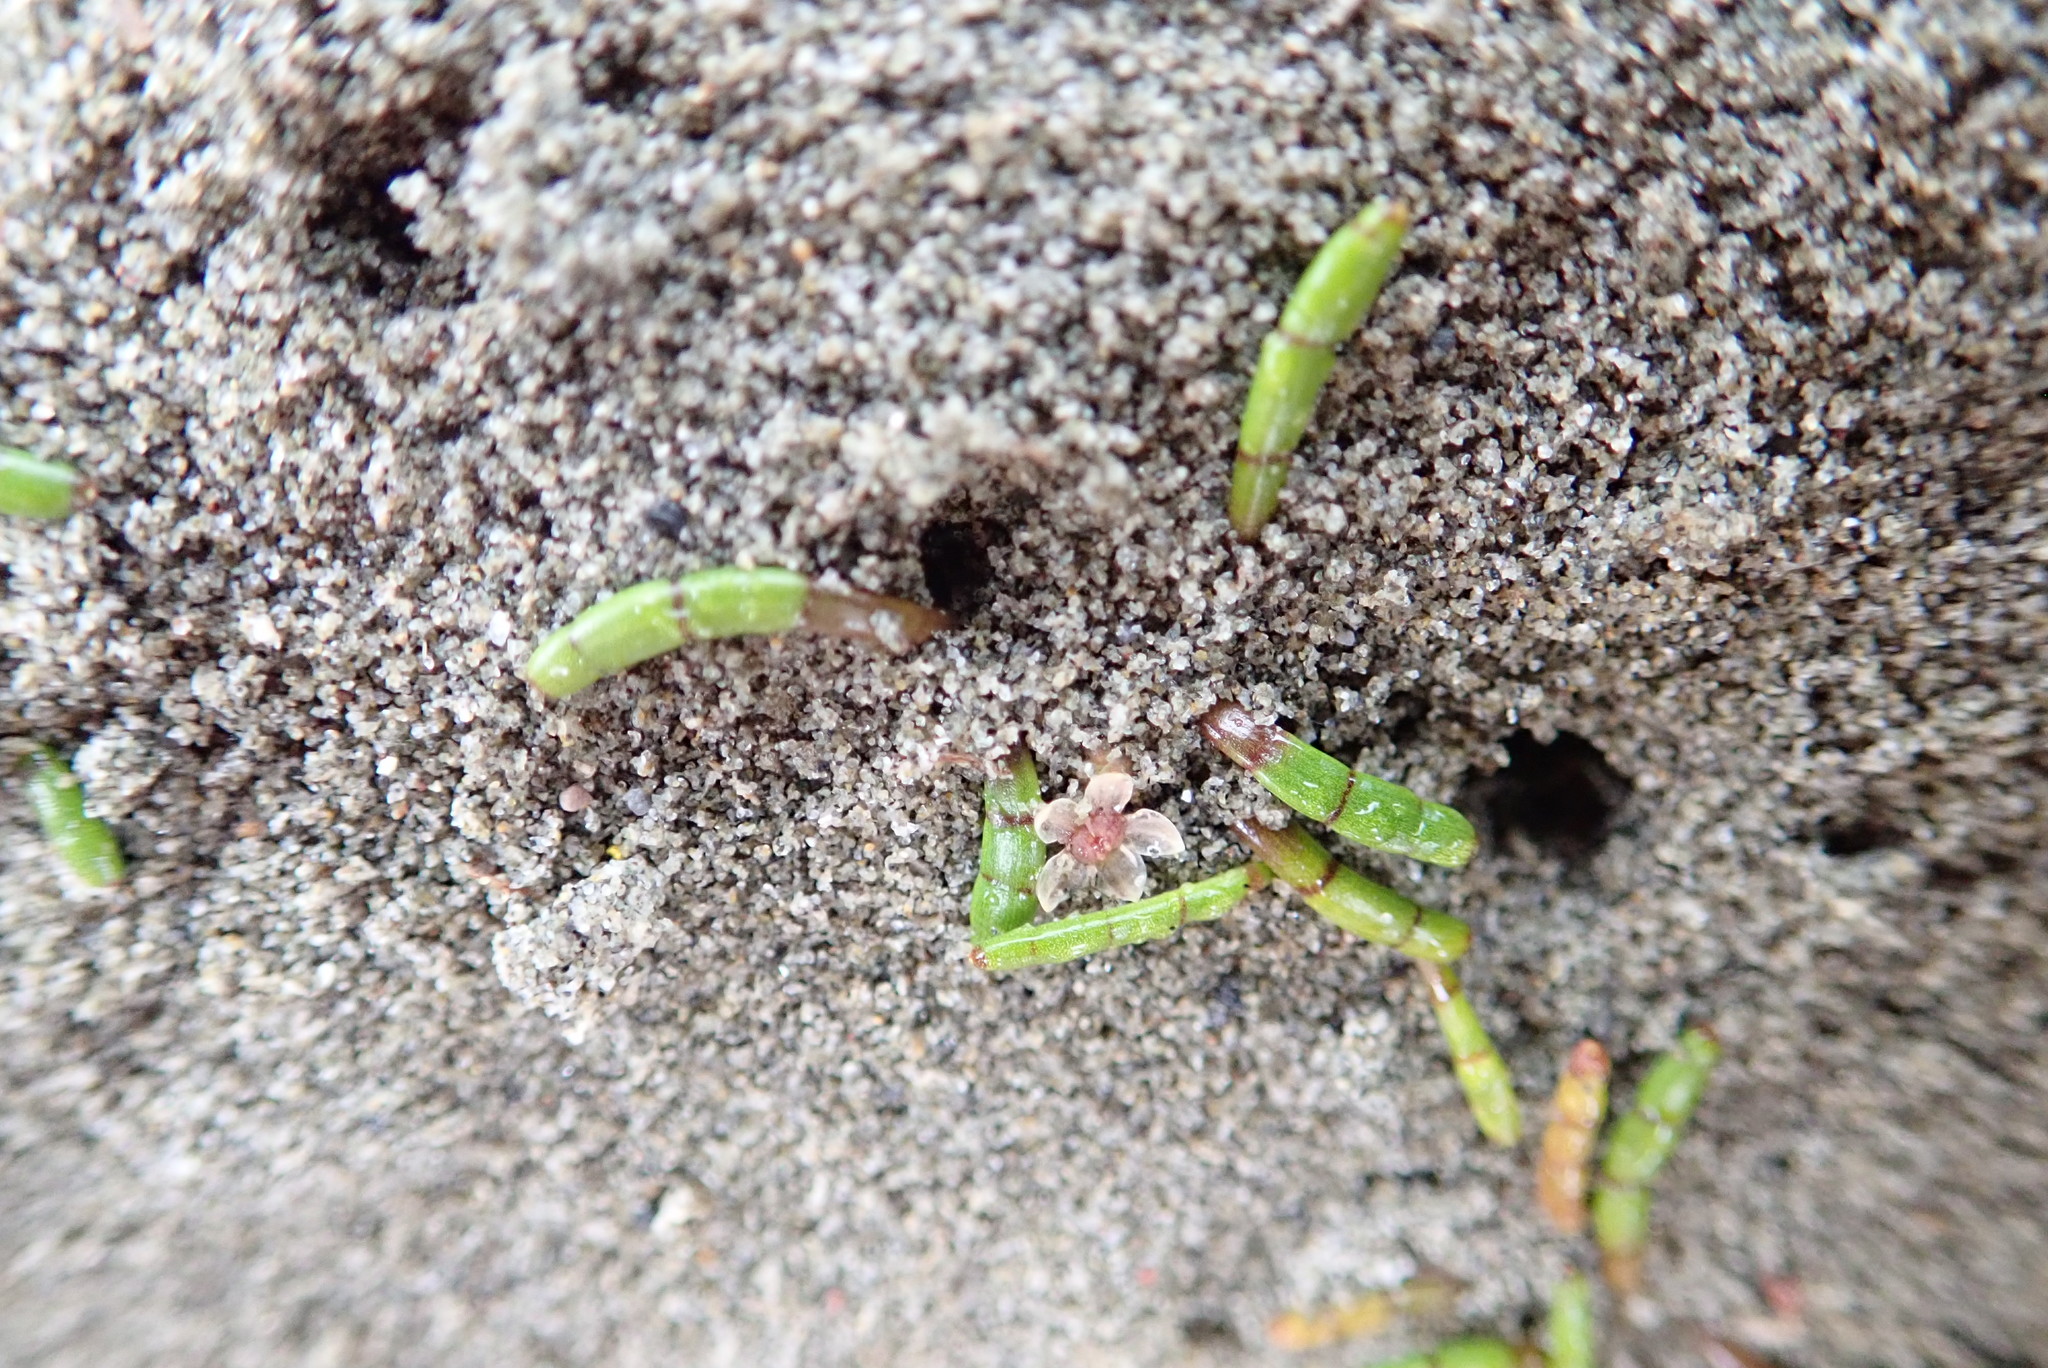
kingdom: Plantae
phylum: Tracheophyta
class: Magnoliopsida
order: Apiales
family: Apiaceae
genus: Lilaeopsis
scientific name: Lilaeopsis novae-zelandiae
